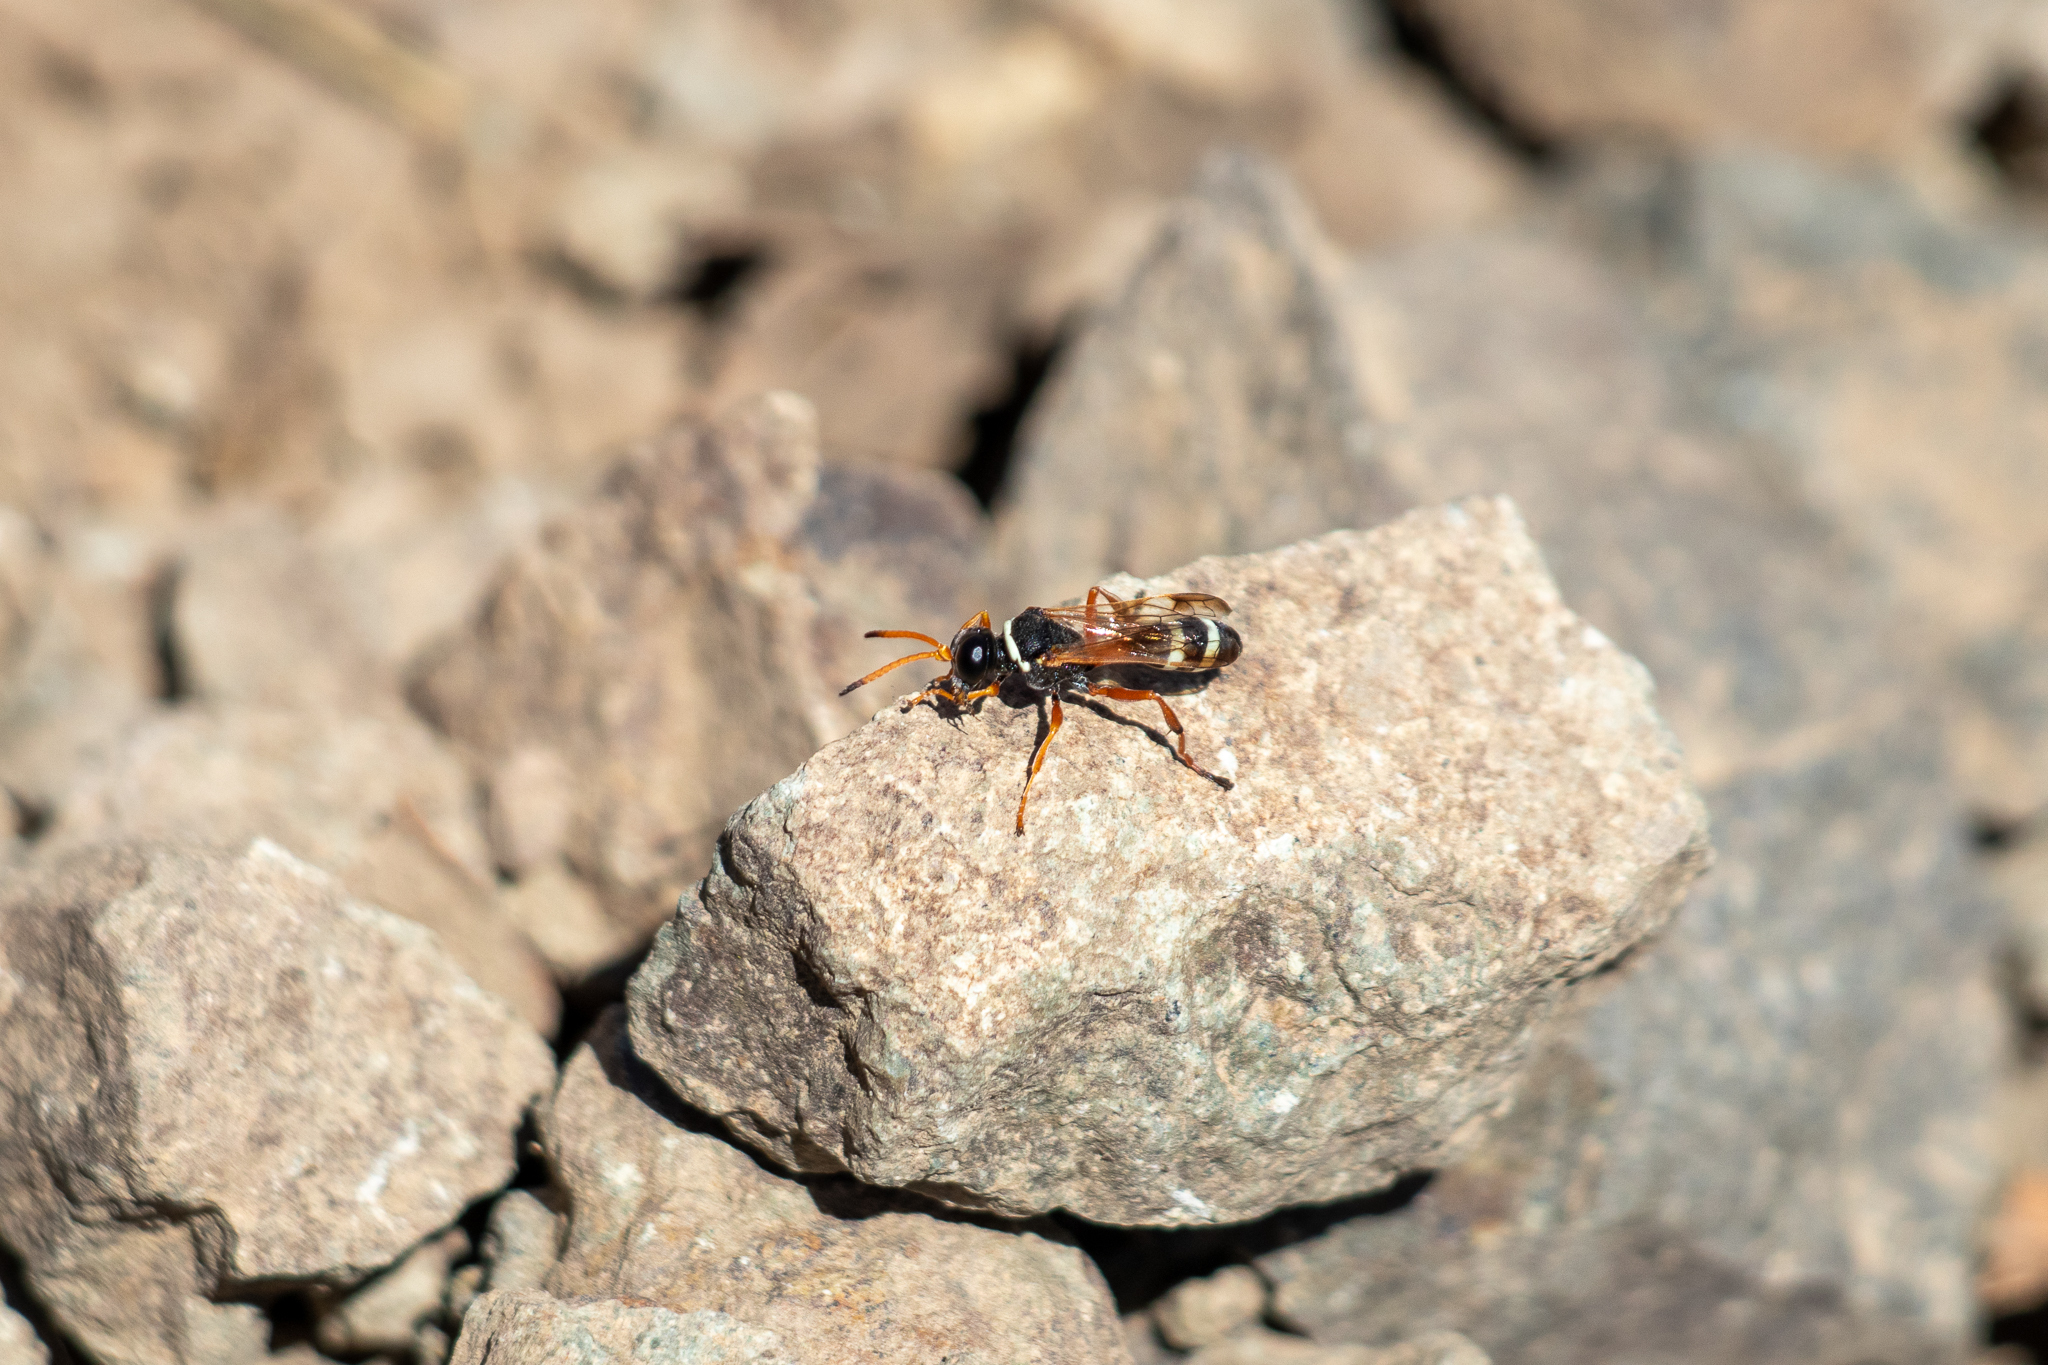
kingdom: Animalia
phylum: Arthropoda
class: Insecta
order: Hymenoptera
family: Crabronidae
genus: Harpactostigma
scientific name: Harpactostigma velutinum
